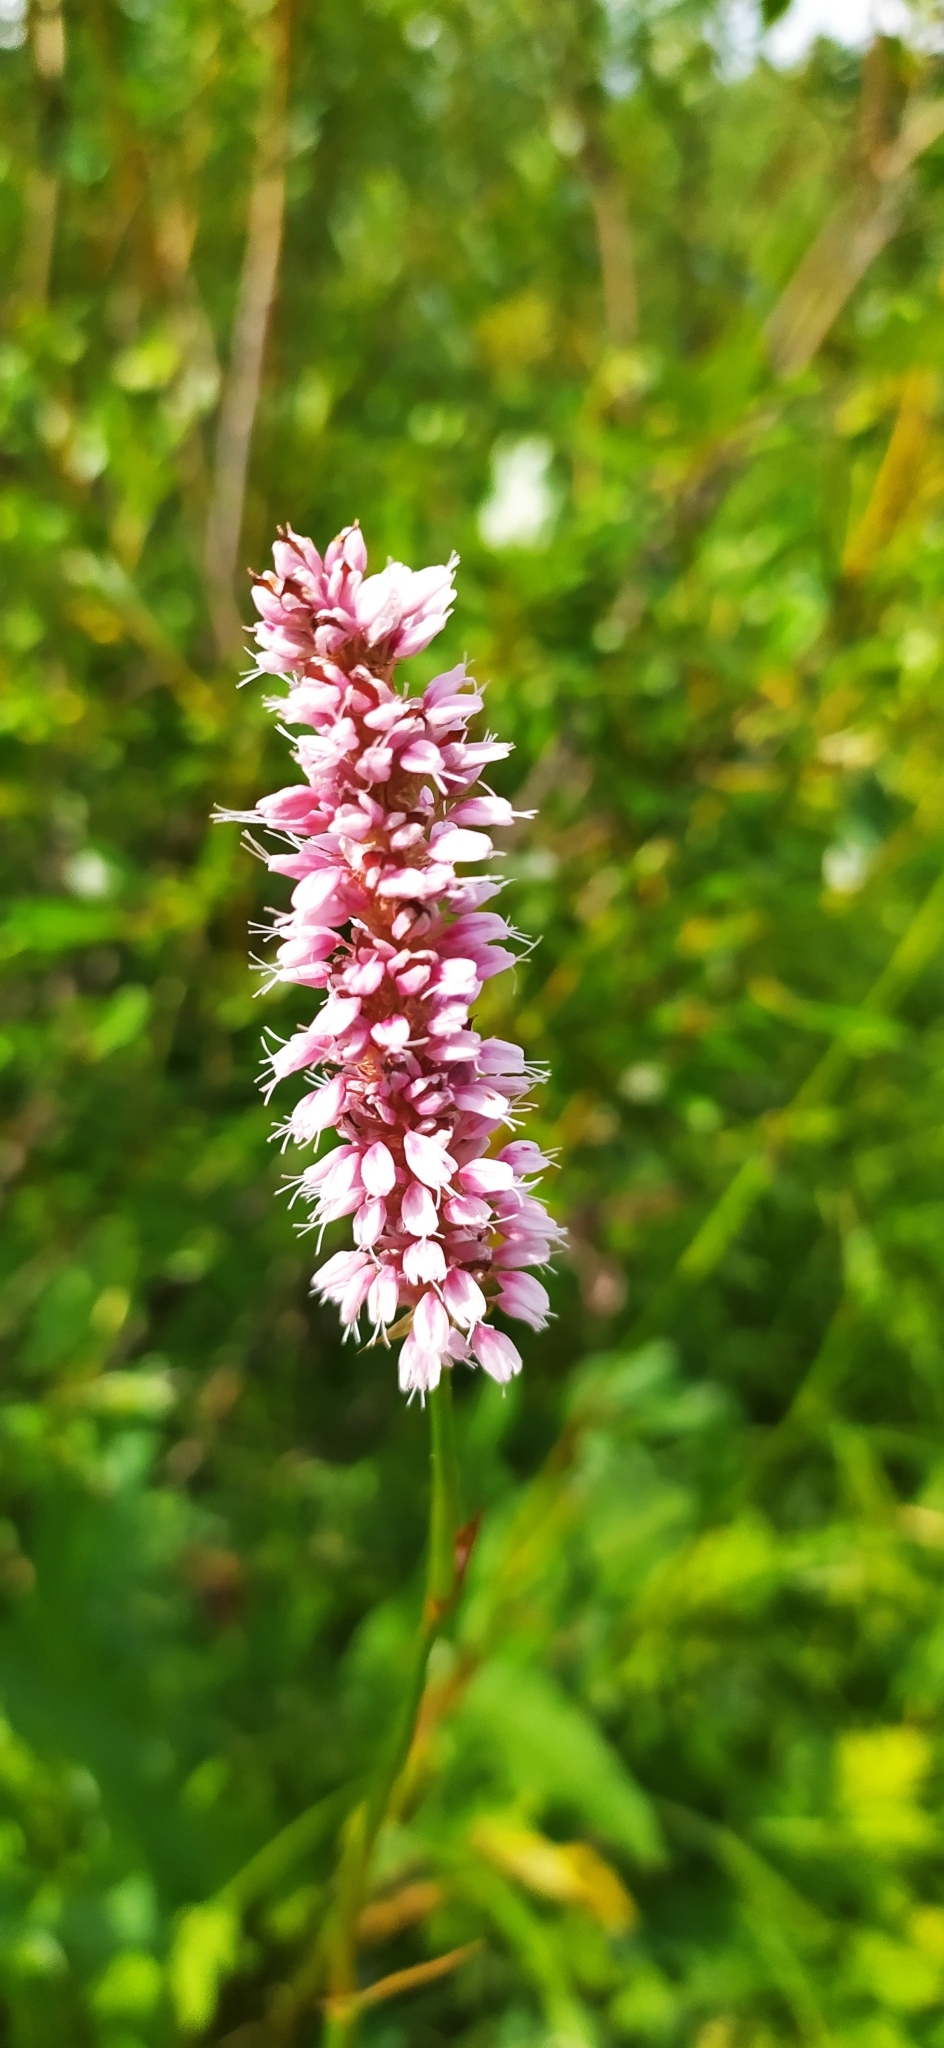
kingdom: Plantae
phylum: Tracheophyta
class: Magnoliopsida
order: Caryophyllales
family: Polygonaceae
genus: Bistorta
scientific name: Bistorta officinalis
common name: Common bistort
